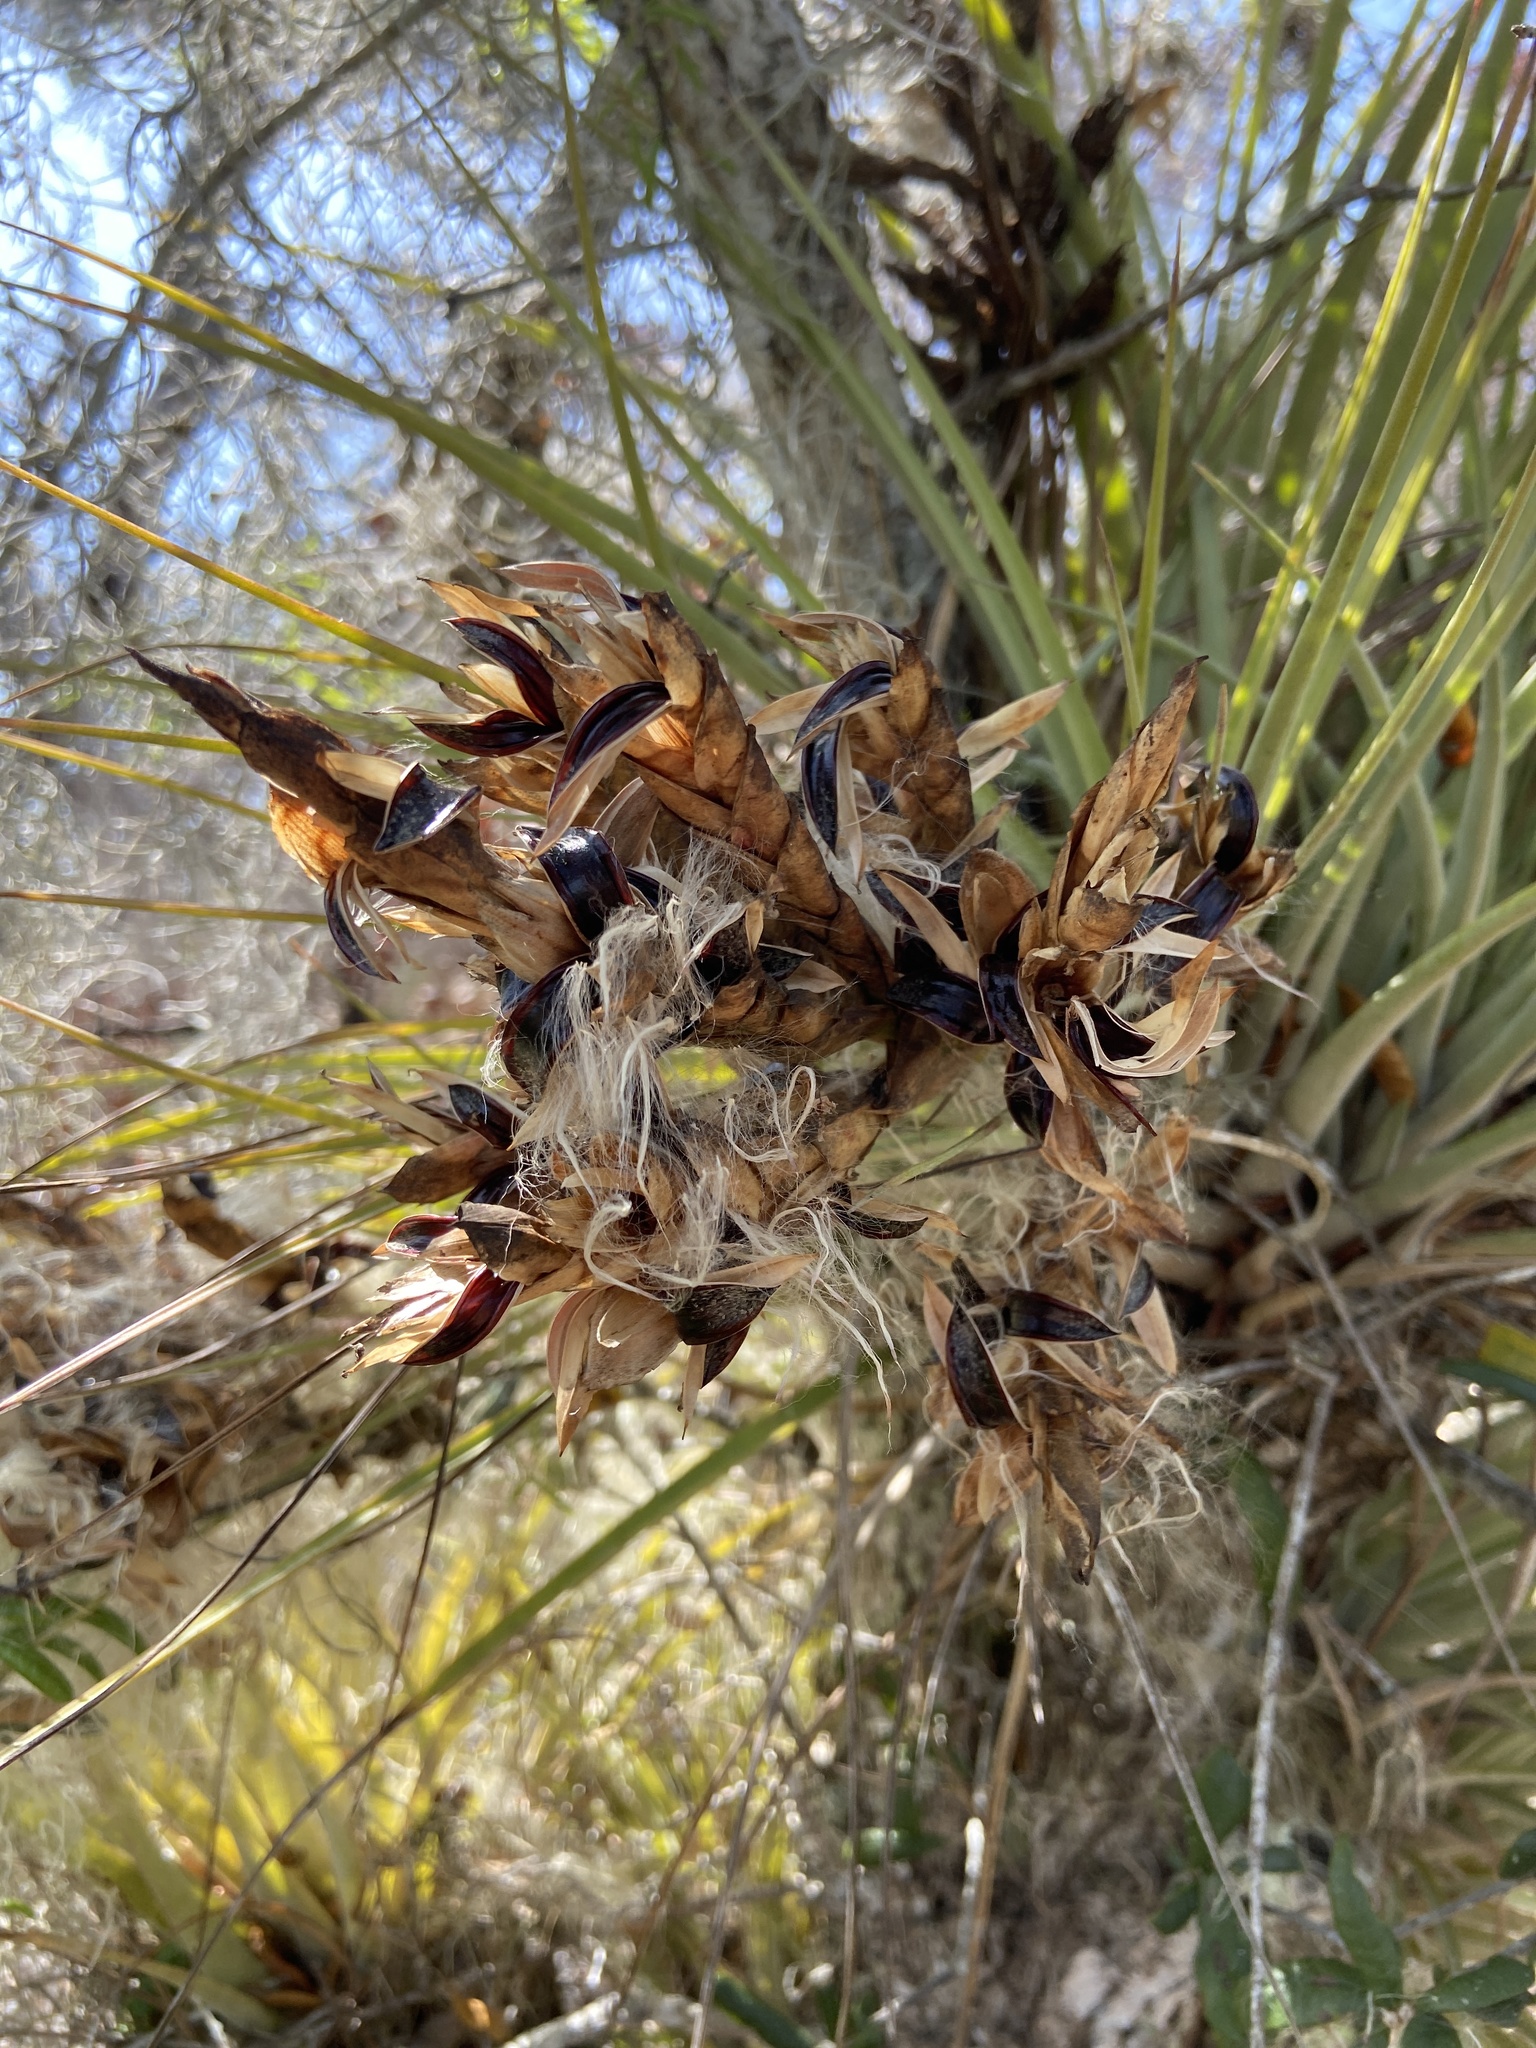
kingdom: Plantae
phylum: Tracheophyta
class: Liliopsida
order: Poales
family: Bromeliaceae
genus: Tillandsia
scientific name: Tillandsia fasciculata
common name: Giant airplant
